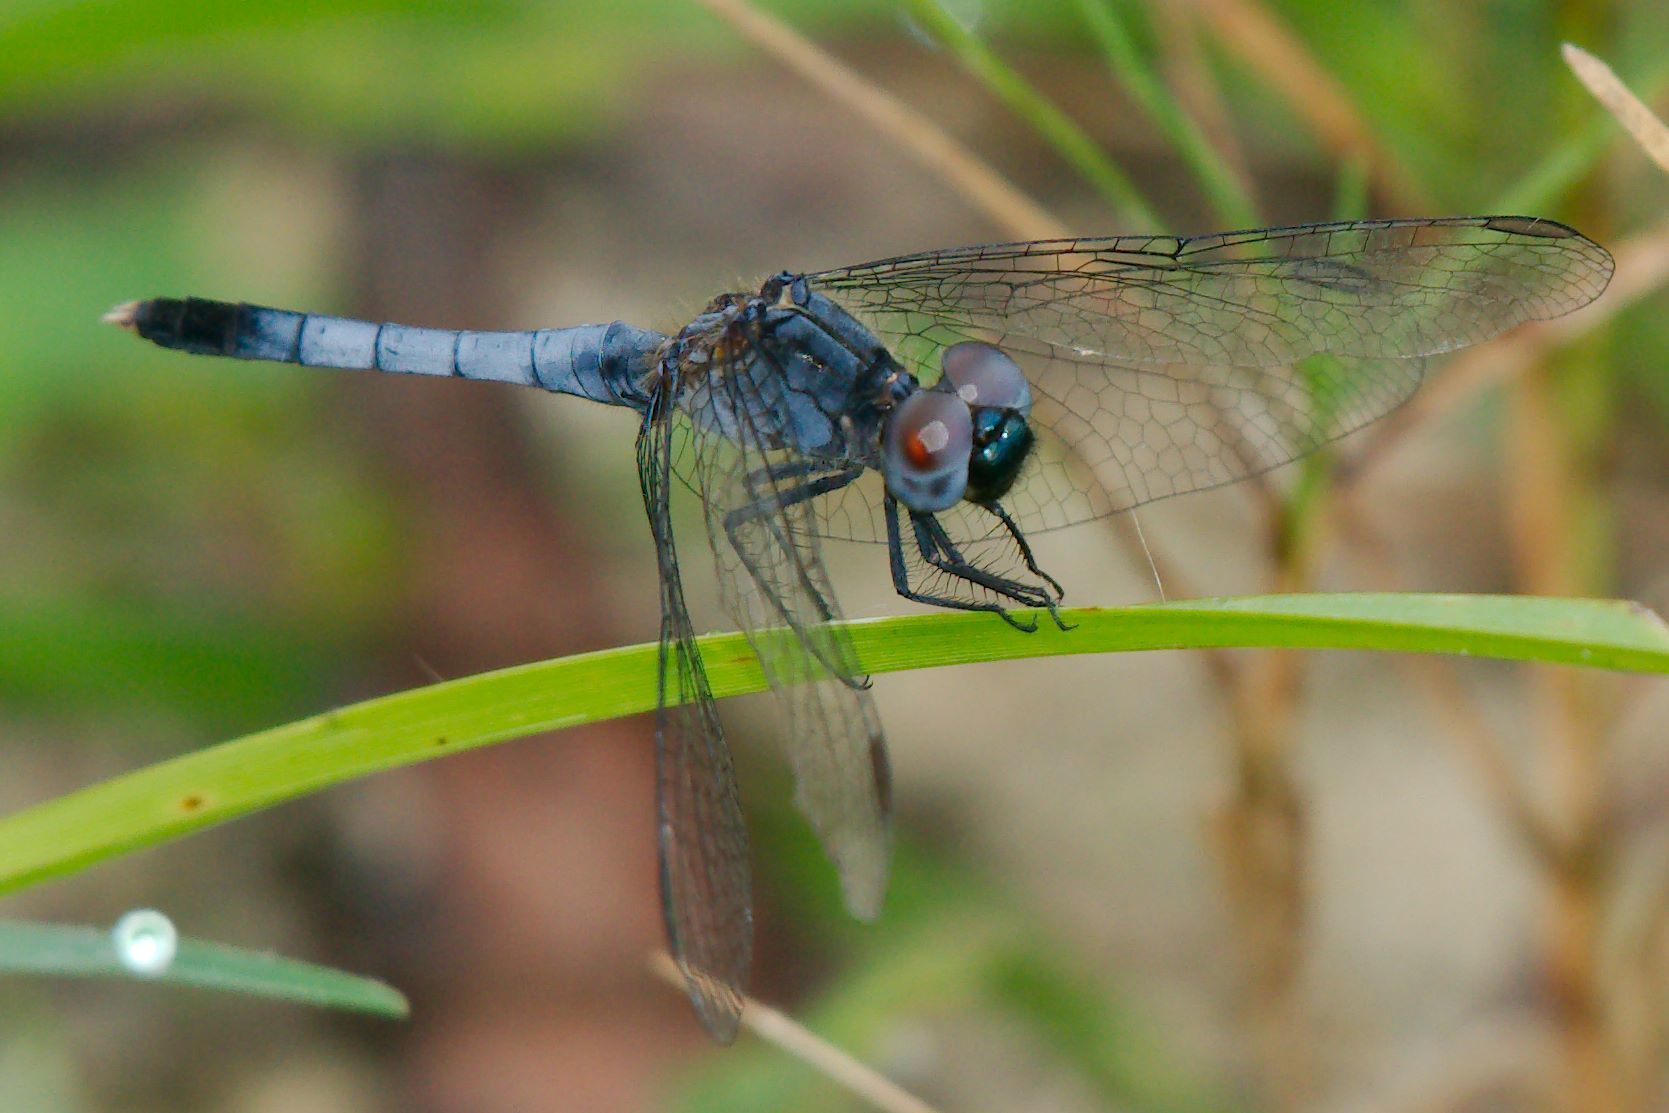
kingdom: Animalia
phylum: Arthropoda
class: Insecta
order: Odonata
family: Libellulidae
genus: Erythrodiplax
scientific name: Erythrodiplax minuscula
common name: Little blue dragonlet
